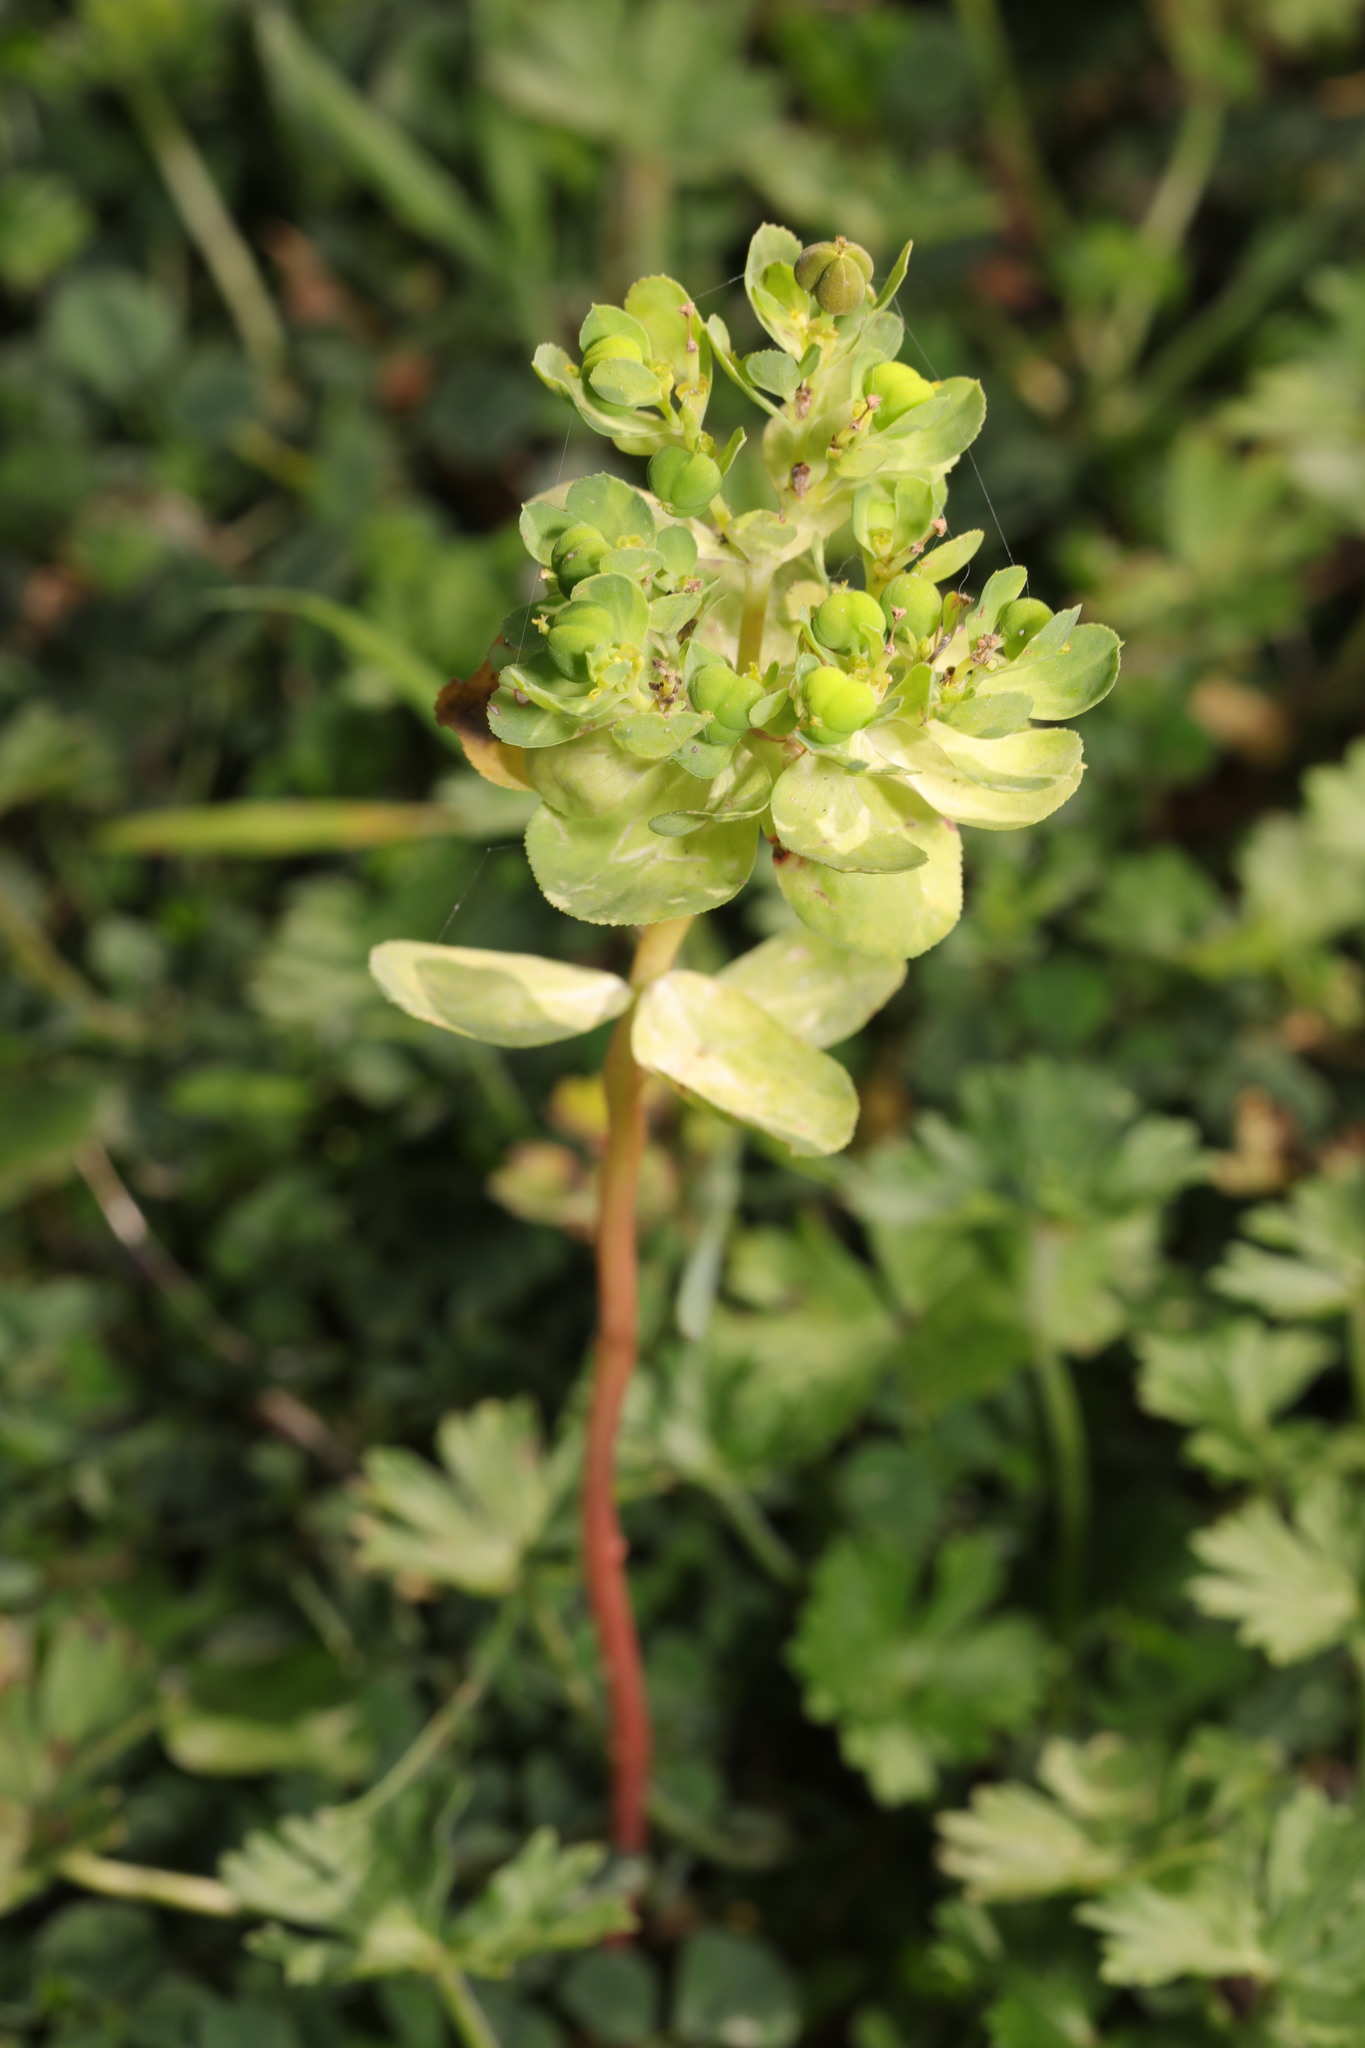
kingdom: Plantae
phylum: Tracheophyta
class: Magnoliopsida
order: Malpighiales
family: Euphorbiaceae
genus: Euphorbia
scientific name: Euphorbia helioscopia
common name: Sun spurge
